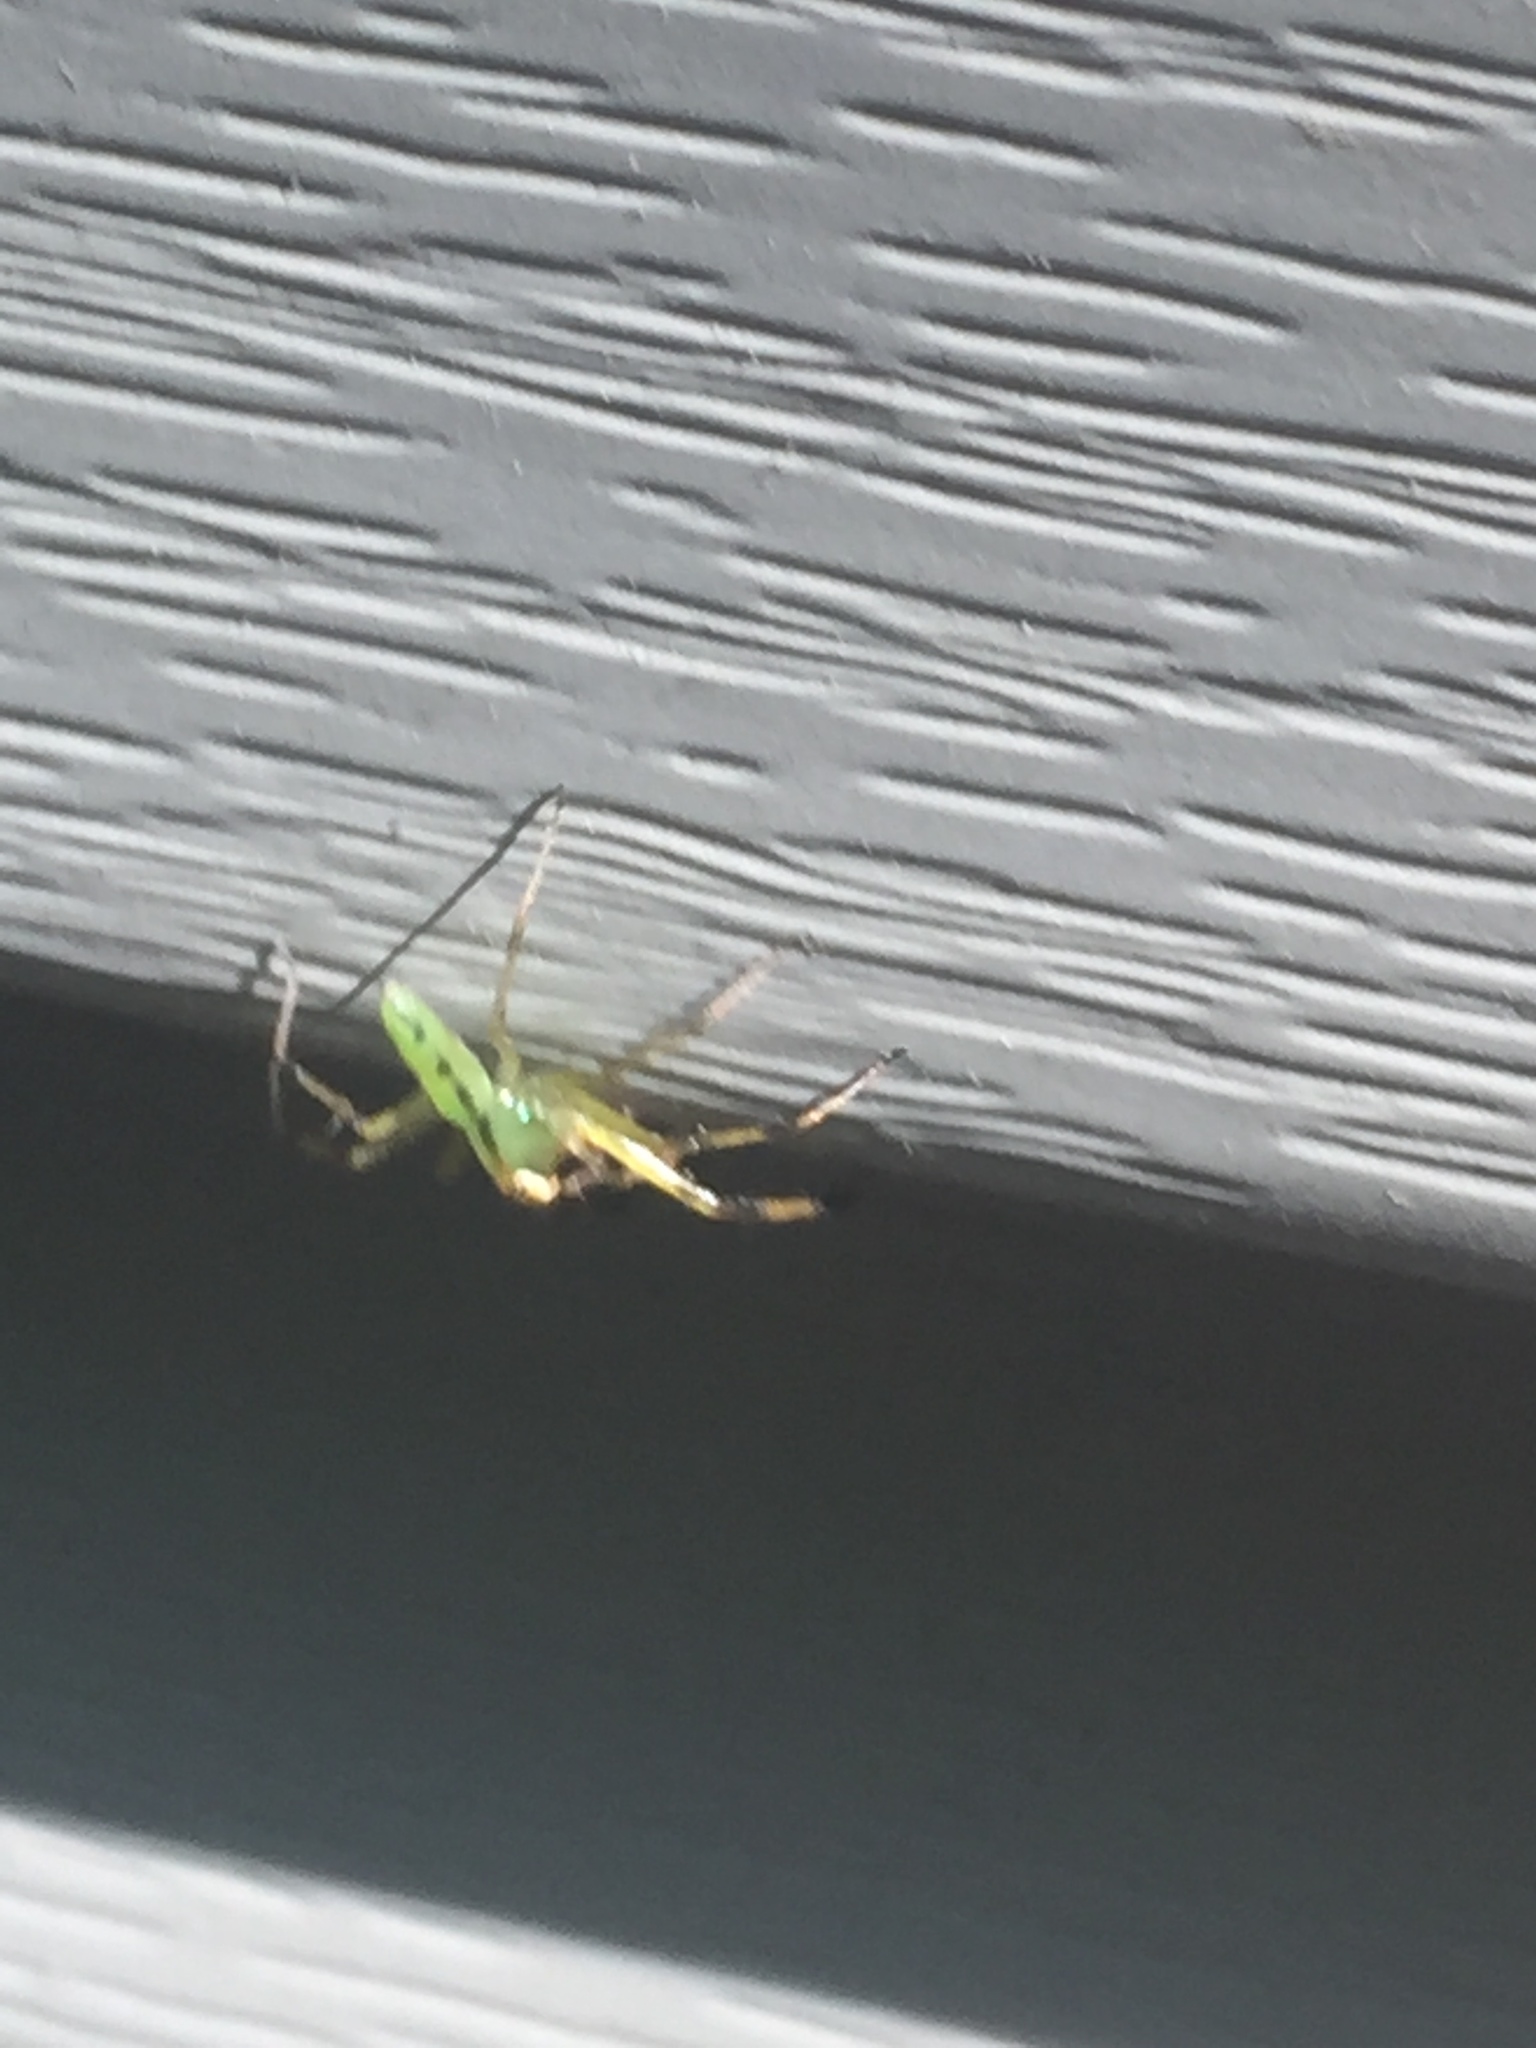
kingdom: Animalia
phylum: Arthropoda
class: Arachnida
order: Araneae
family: Salticidae
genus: Lyssomanes
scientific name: Lyssomanes viridis
